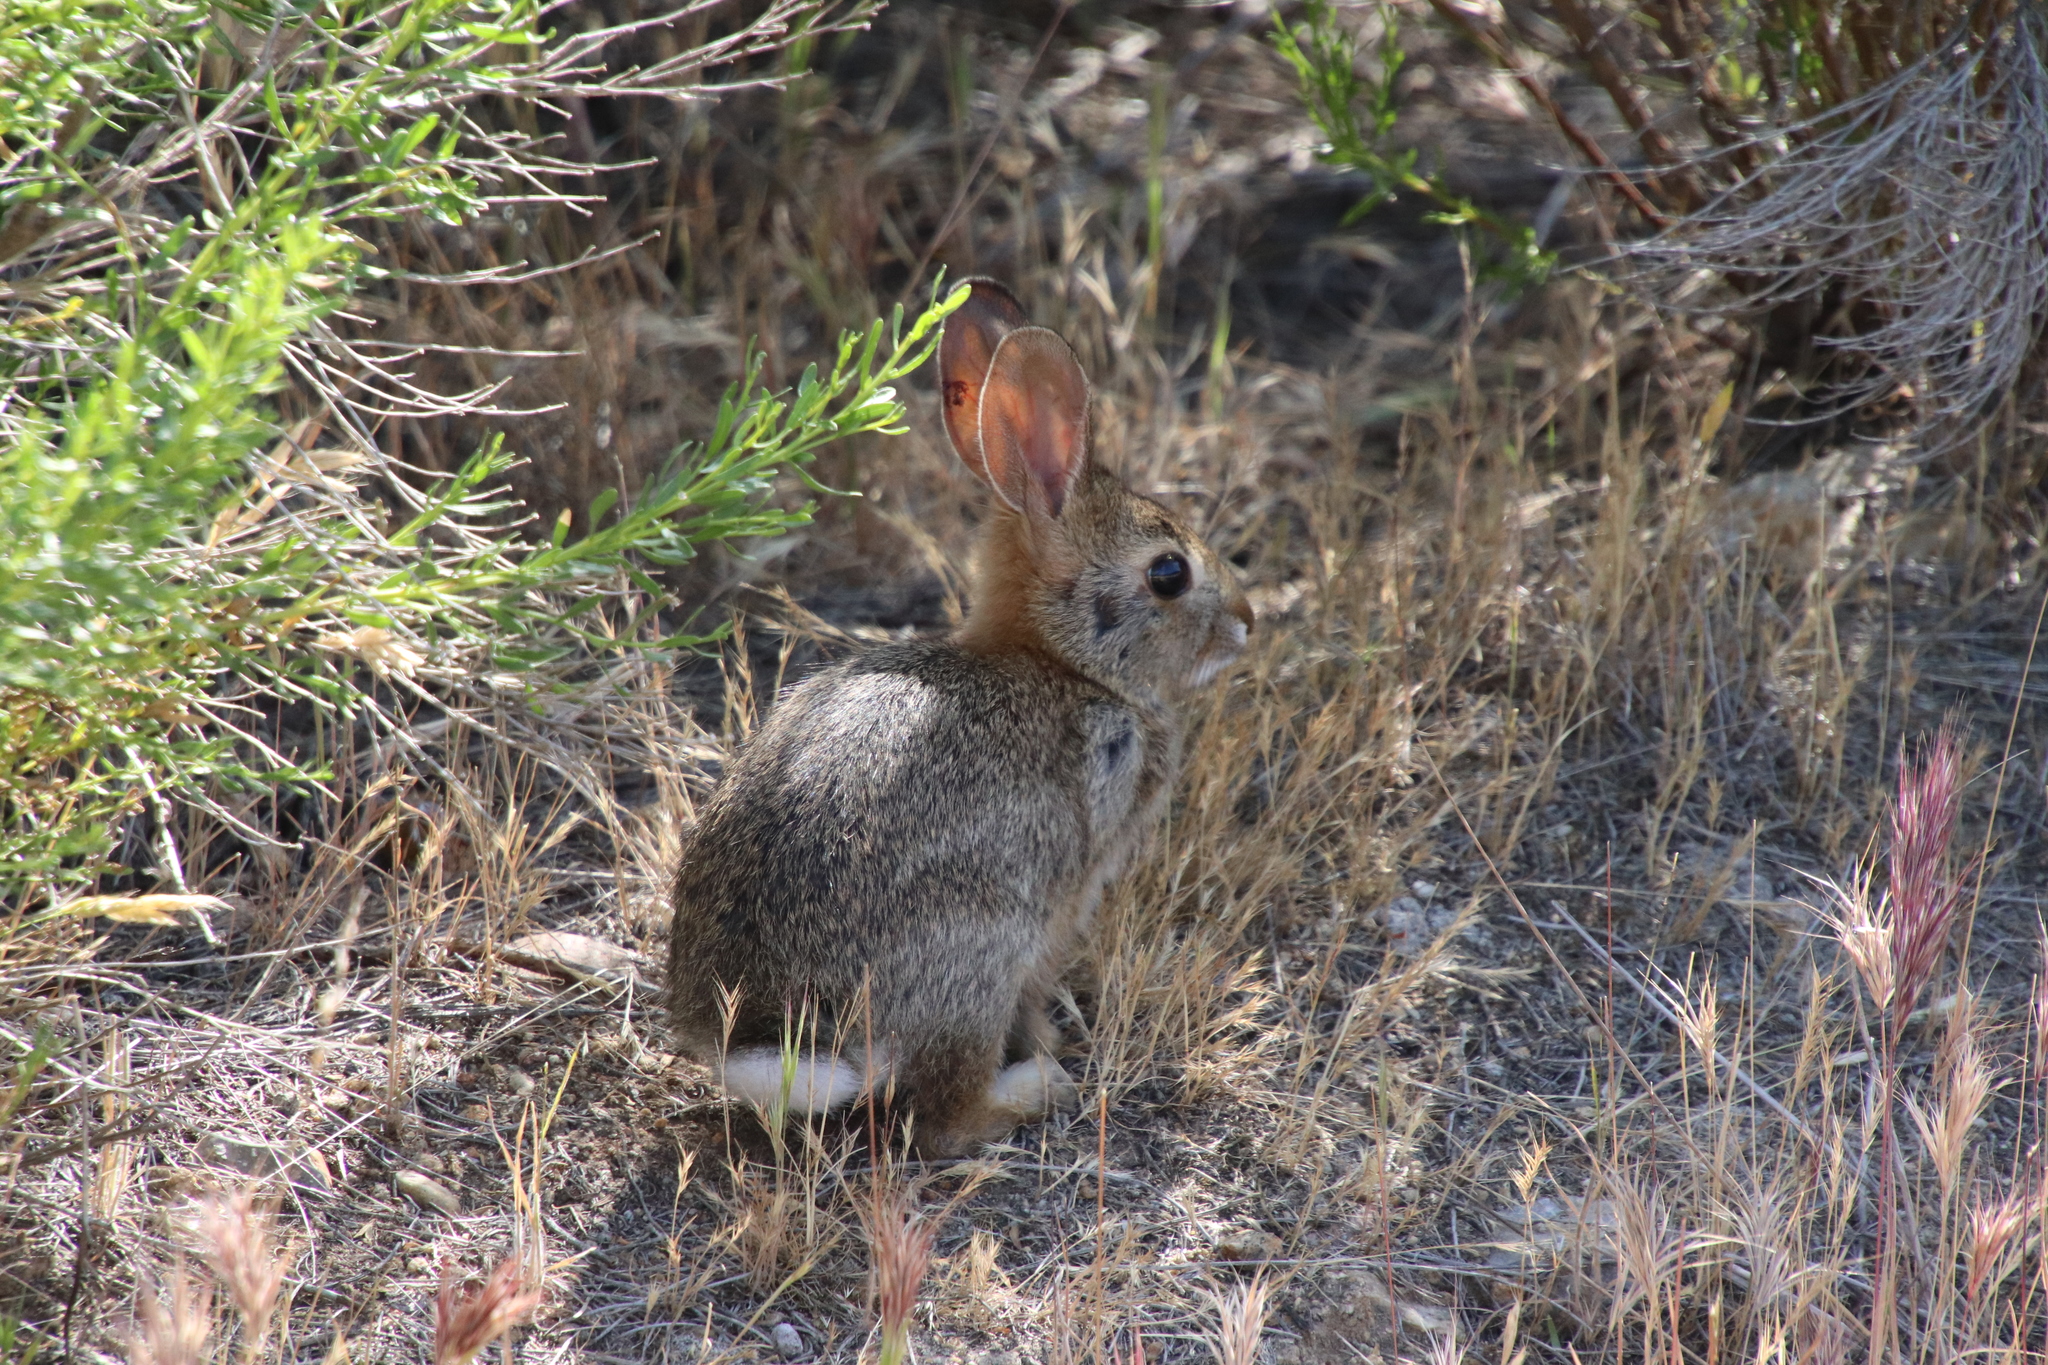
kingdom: Animalia
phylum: Chordata
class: Mammalia
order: Lagomorpha
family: Leporidae
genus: Sylvilagus
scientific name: Sylvilagus audubonii
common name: Desert cottontail
